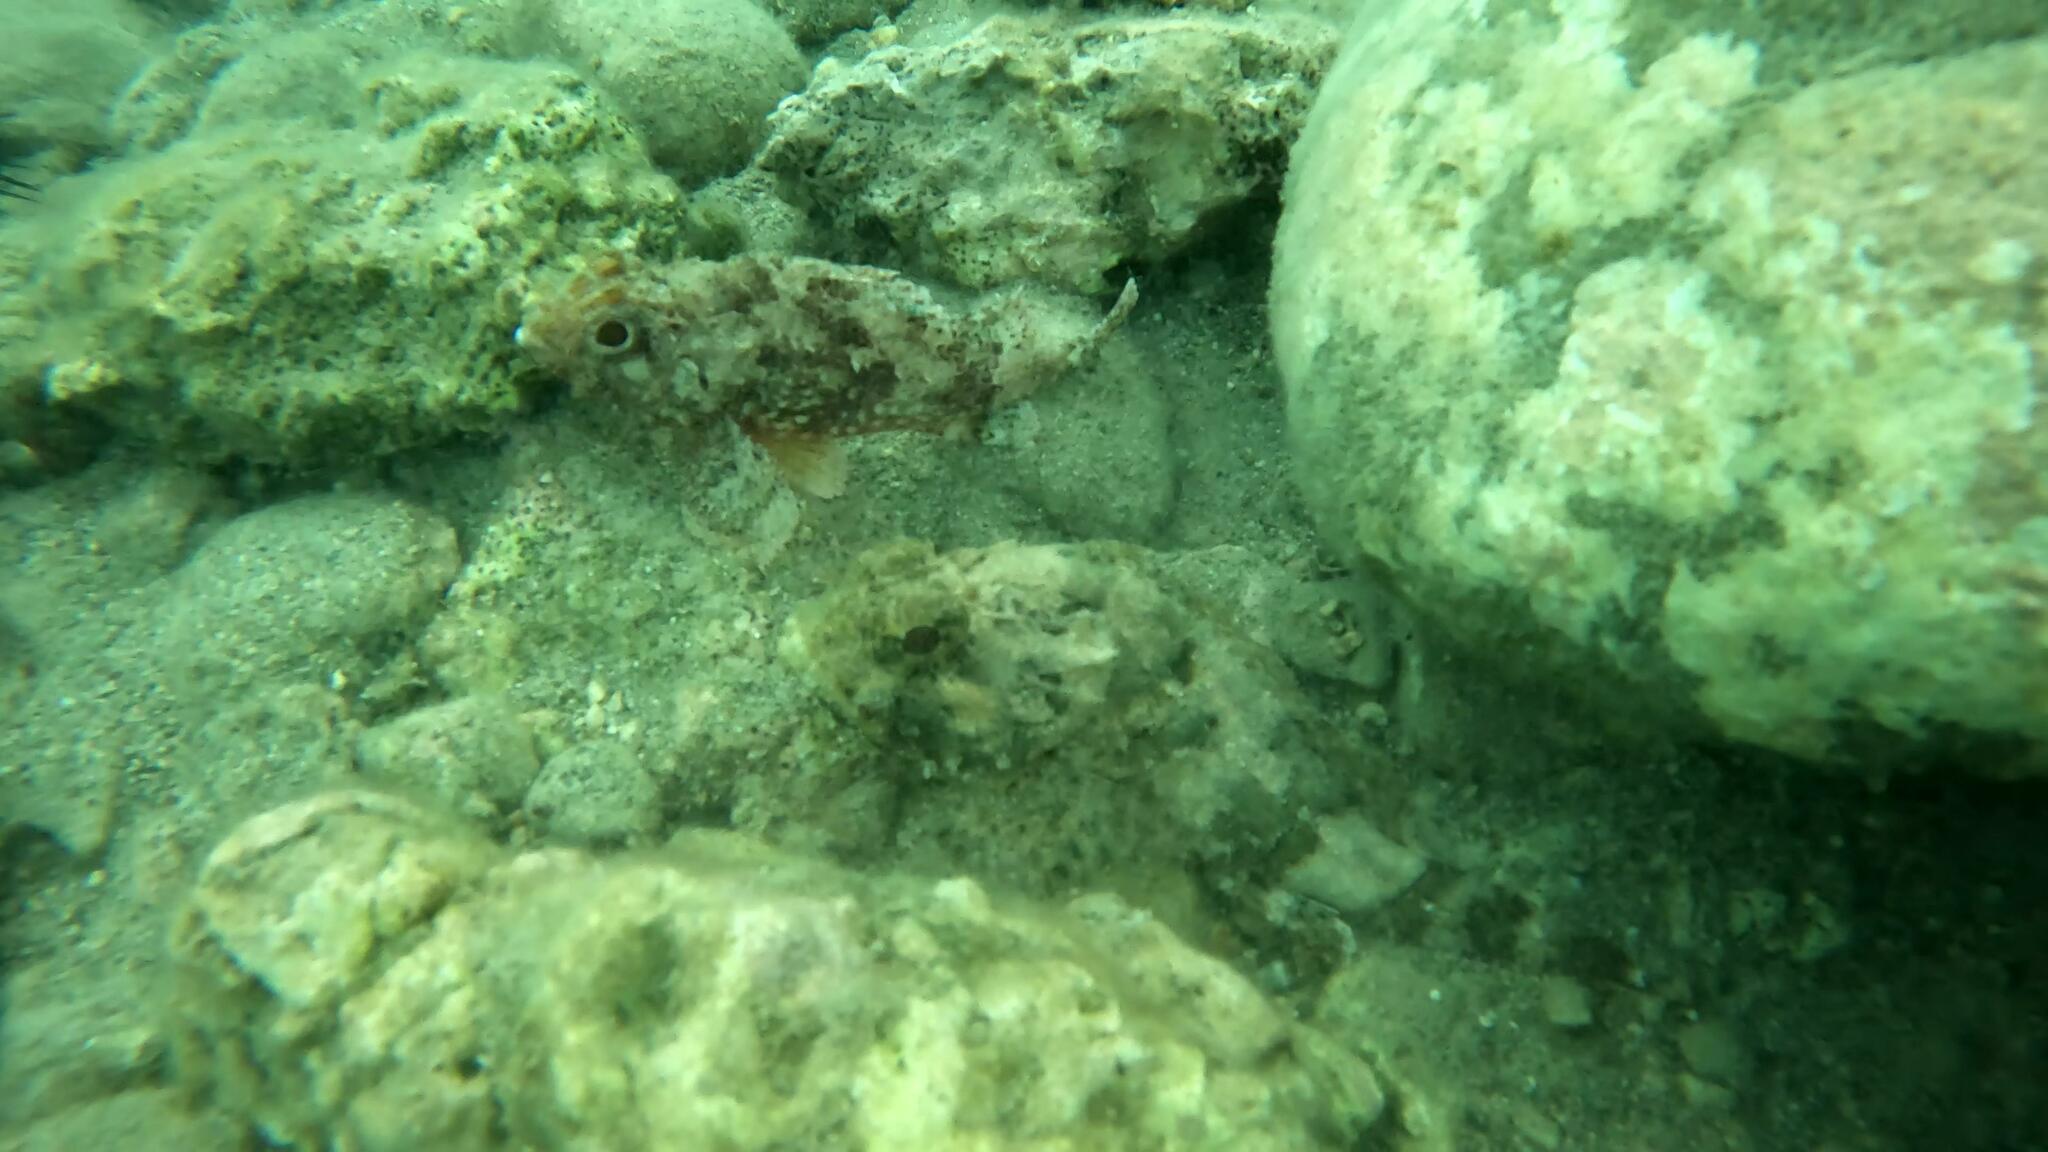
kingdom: Animalia
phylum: Chordata
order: Scorpaeniformes
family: Scorpaenidae
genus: Scorpaena
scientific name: Scorpaena
